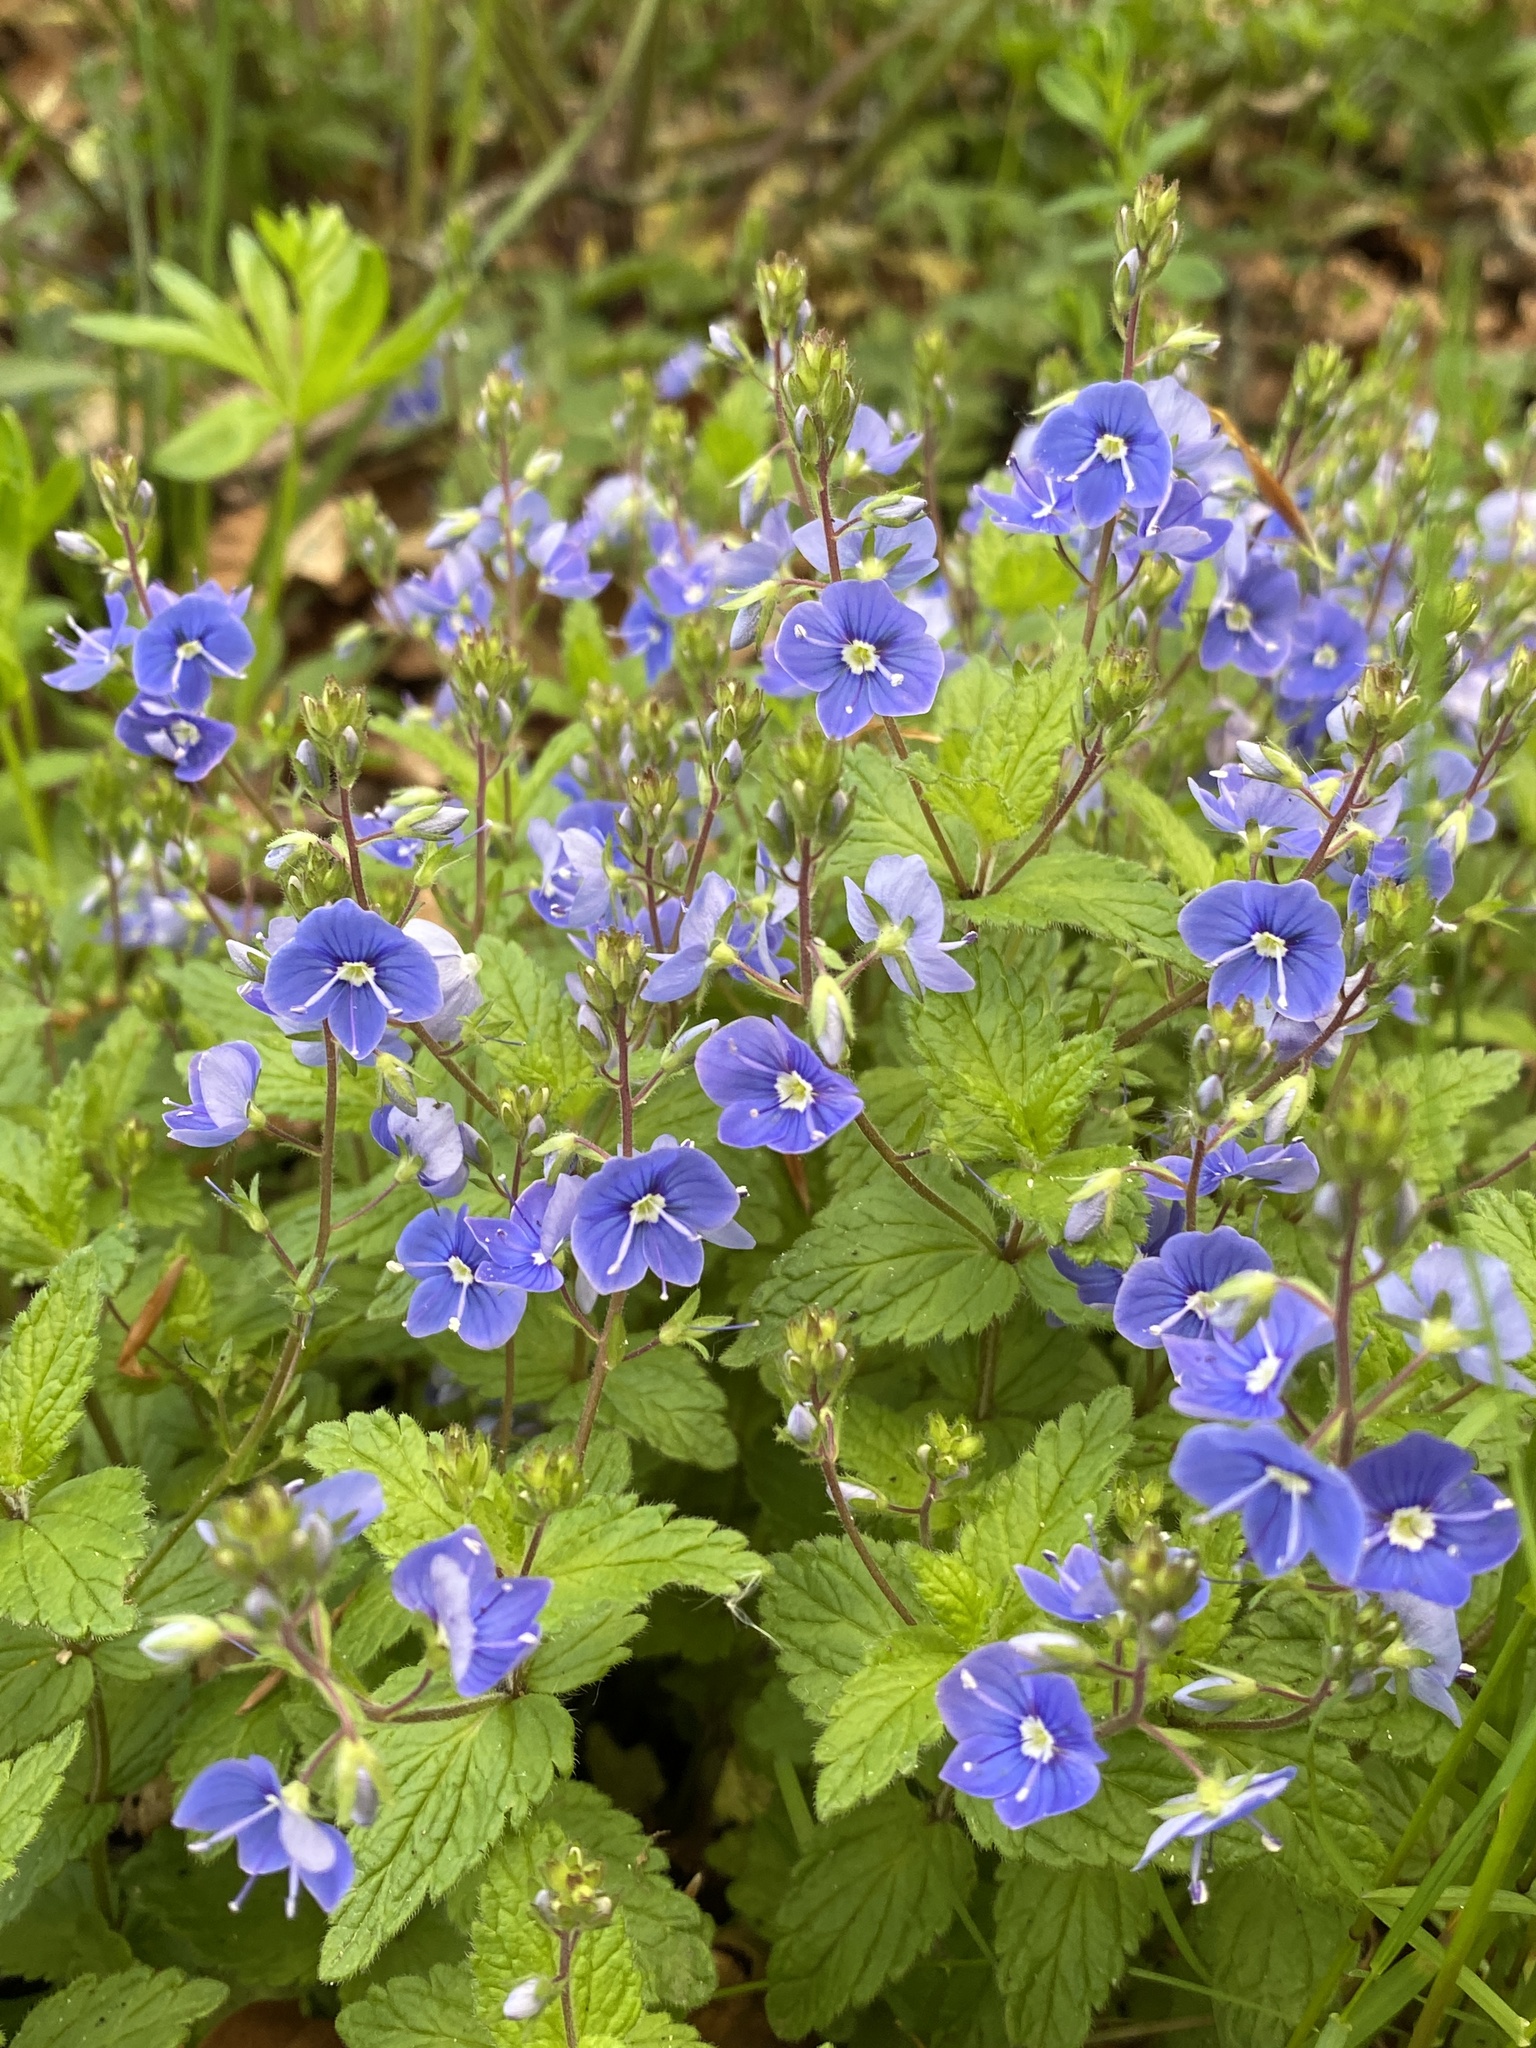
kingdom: Plantae
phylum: Tracheophyta
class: Magnoliopsida
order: Lamiales
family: Plantaginaceae
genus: Veronica
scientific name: Veronica chamaedrys
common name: Germander speedwell
